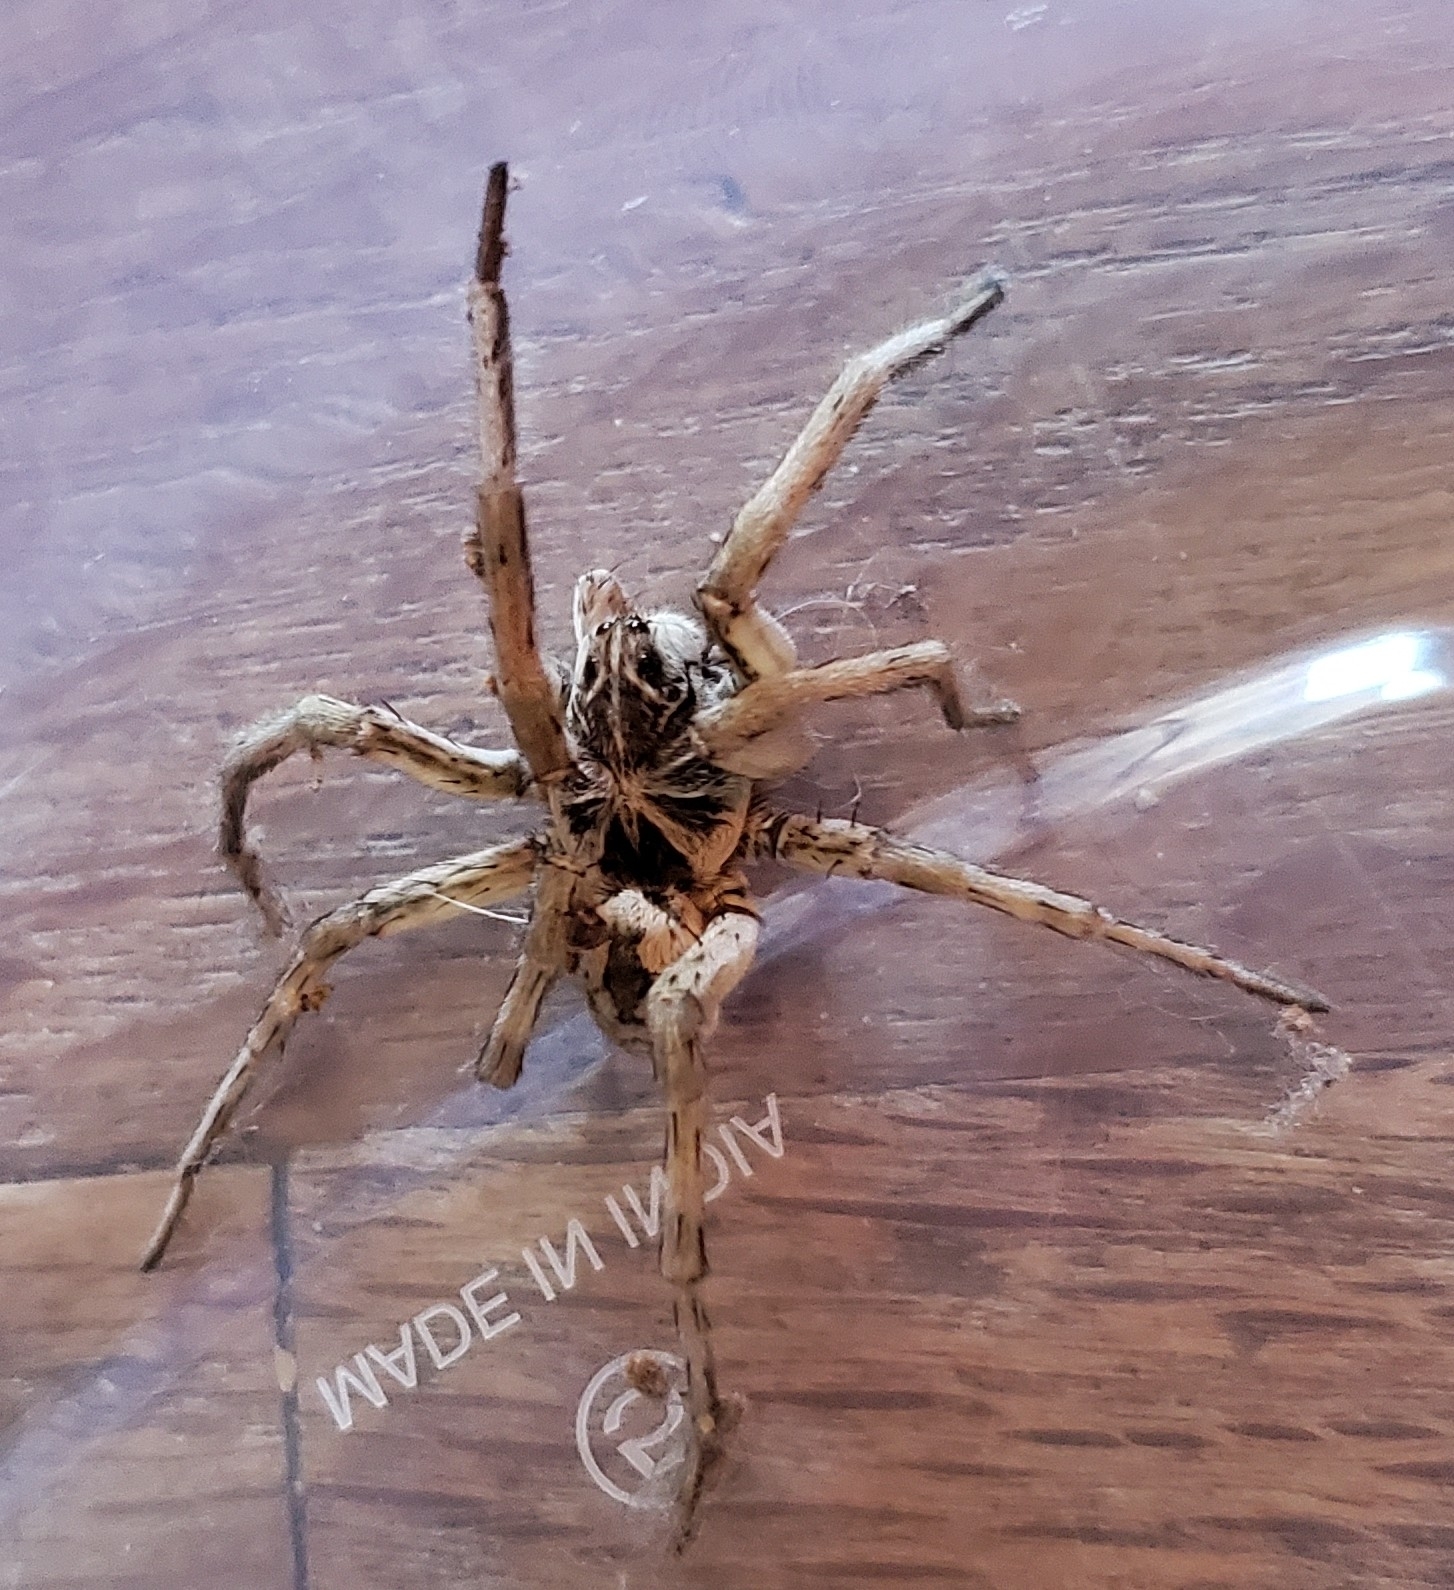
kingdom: Animalia
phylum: Arthropoda
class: Arachnida
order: Araneae
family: Lycosidae
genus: Hogna
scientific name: Hogna baltimoriana
